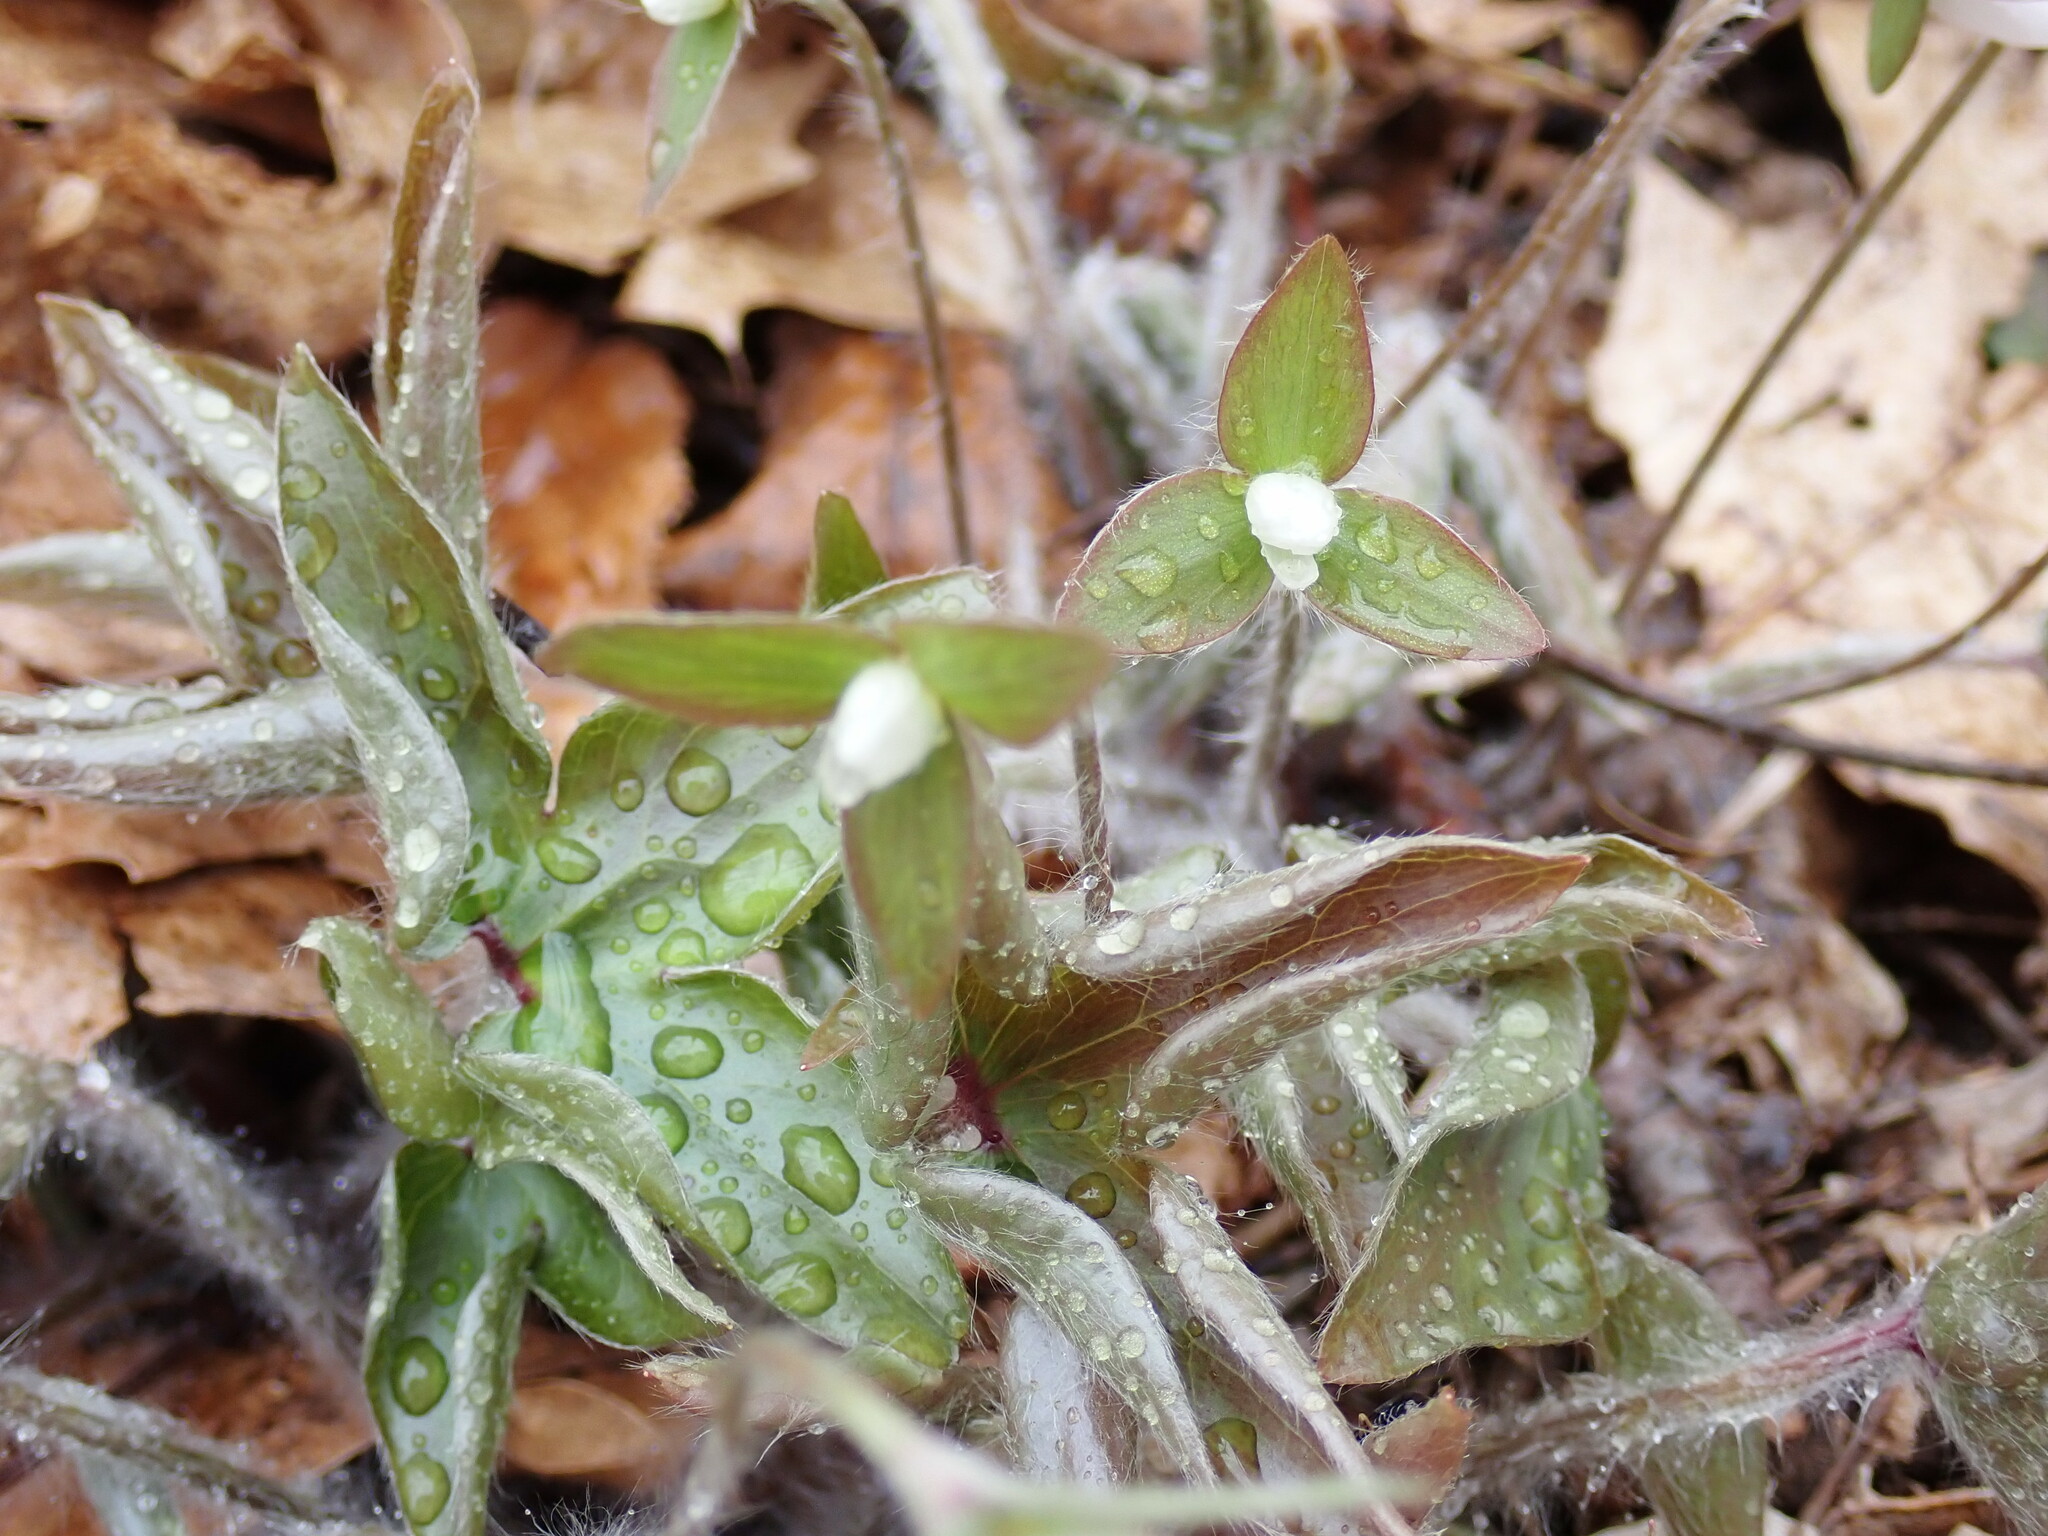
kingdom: Plantae
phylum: Tracheophyta
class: Magnoliopsida
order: Ranunculales
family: Ranunculaceae
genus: Hepatica
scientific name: Hepatica acutiloba
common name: Sharp-lobed hepatica
